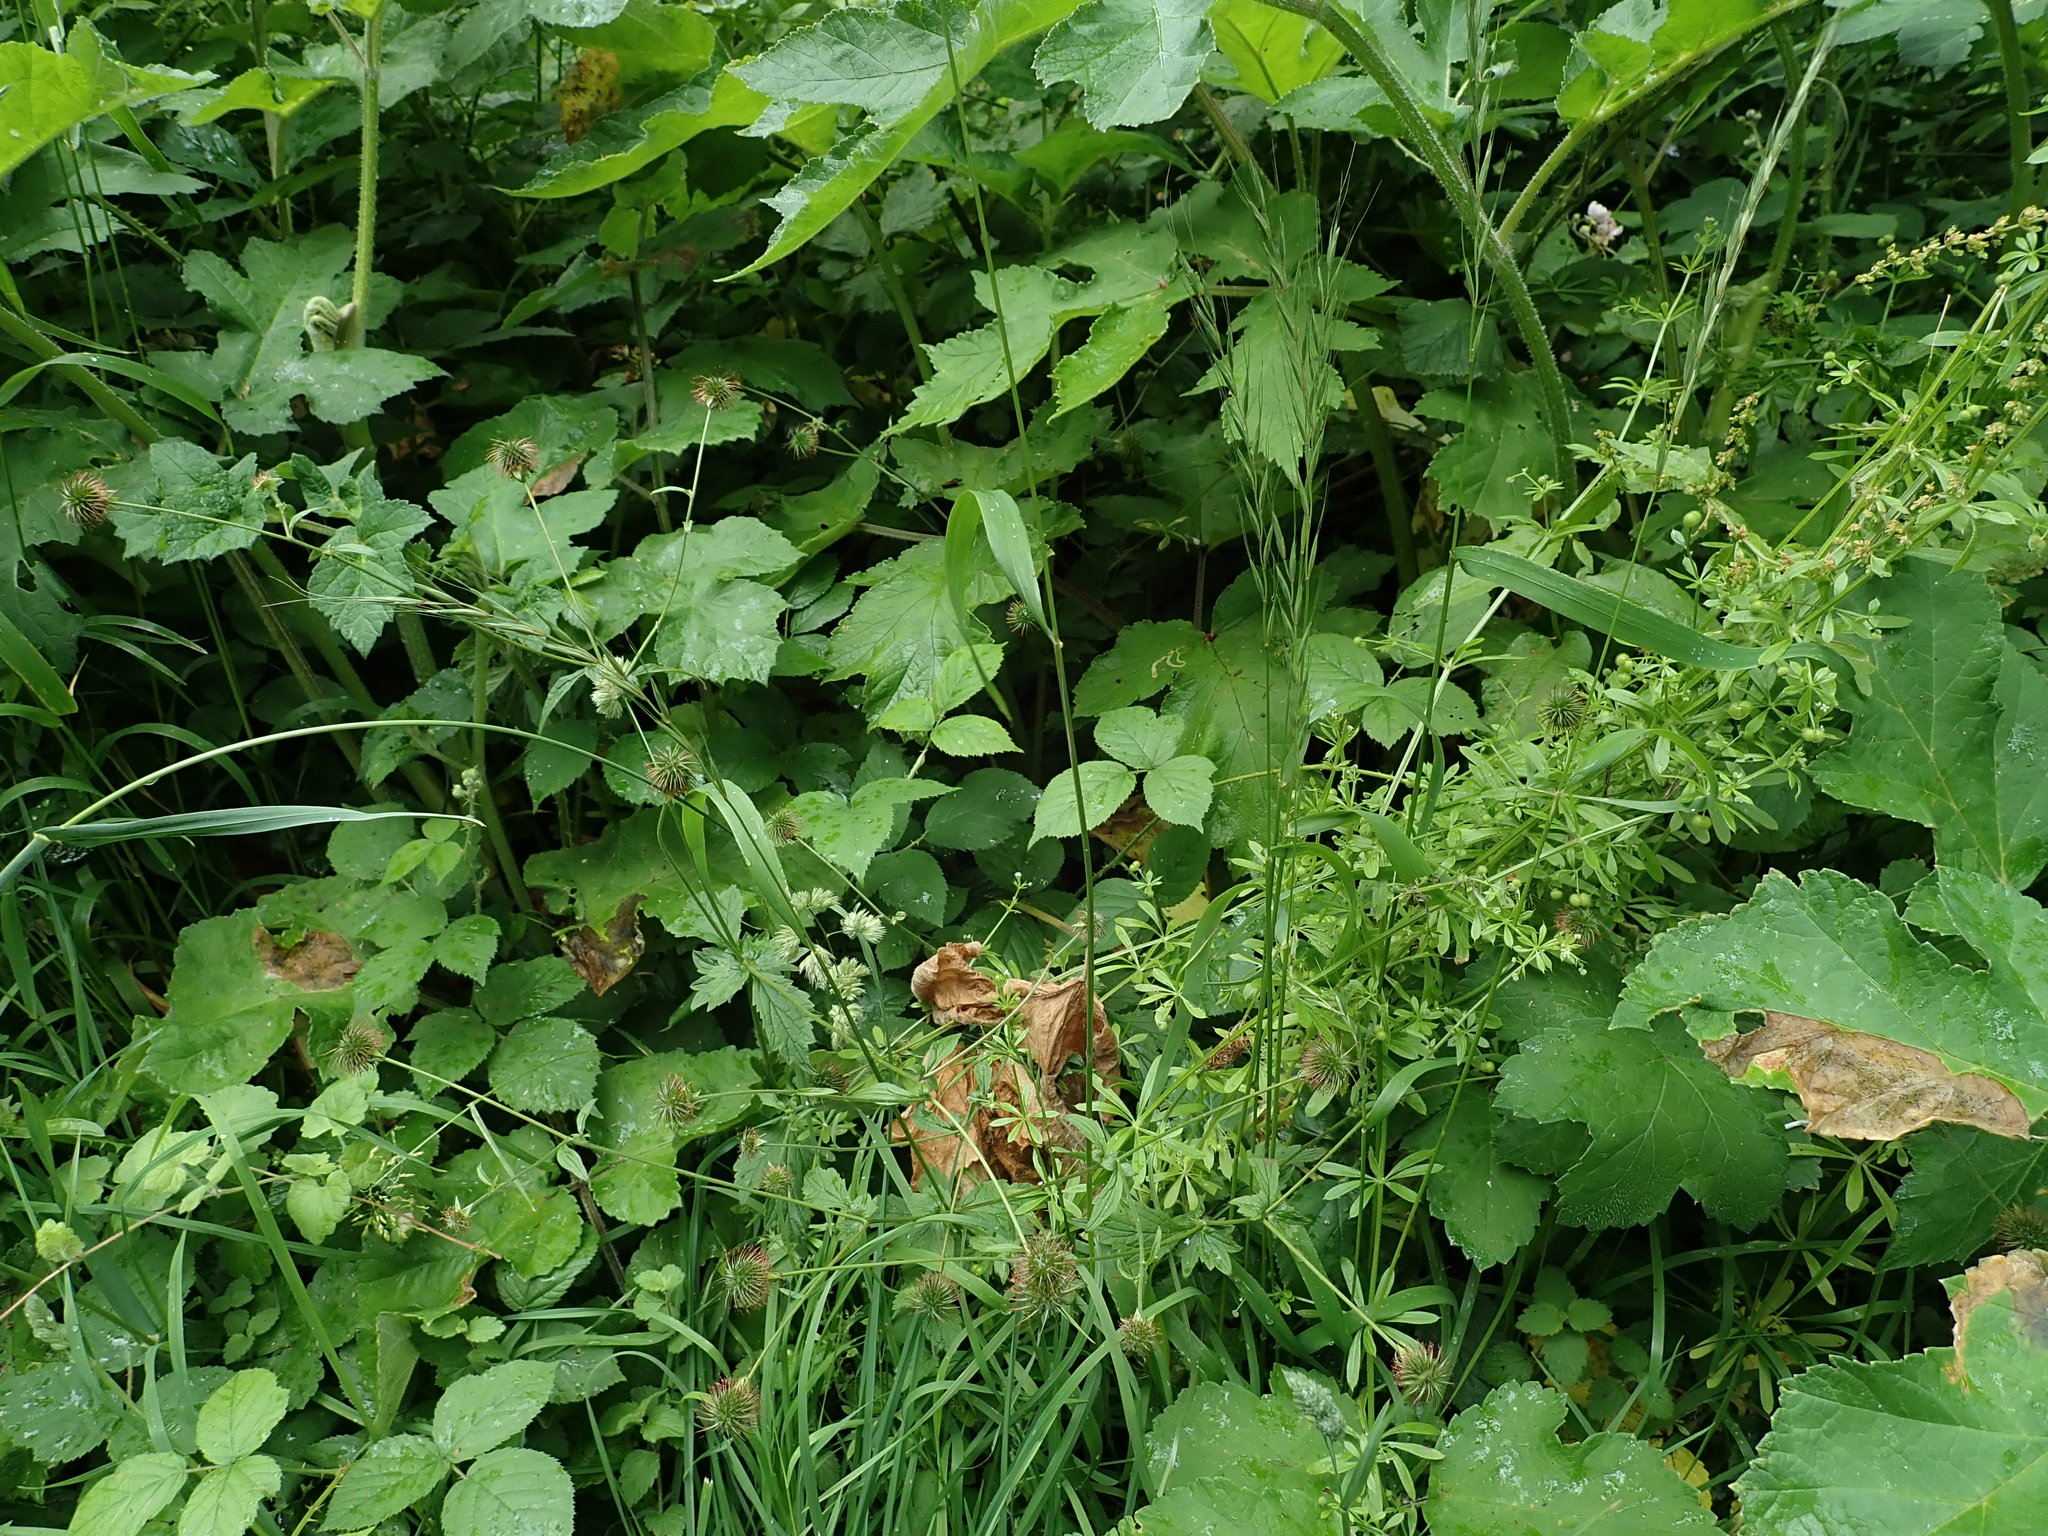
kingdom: Plantae
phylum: Tracheophyta
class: Liliopsida
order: Poales
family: Poaceae
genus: Elymus
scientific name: Elymus repens
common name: Quackgrass
